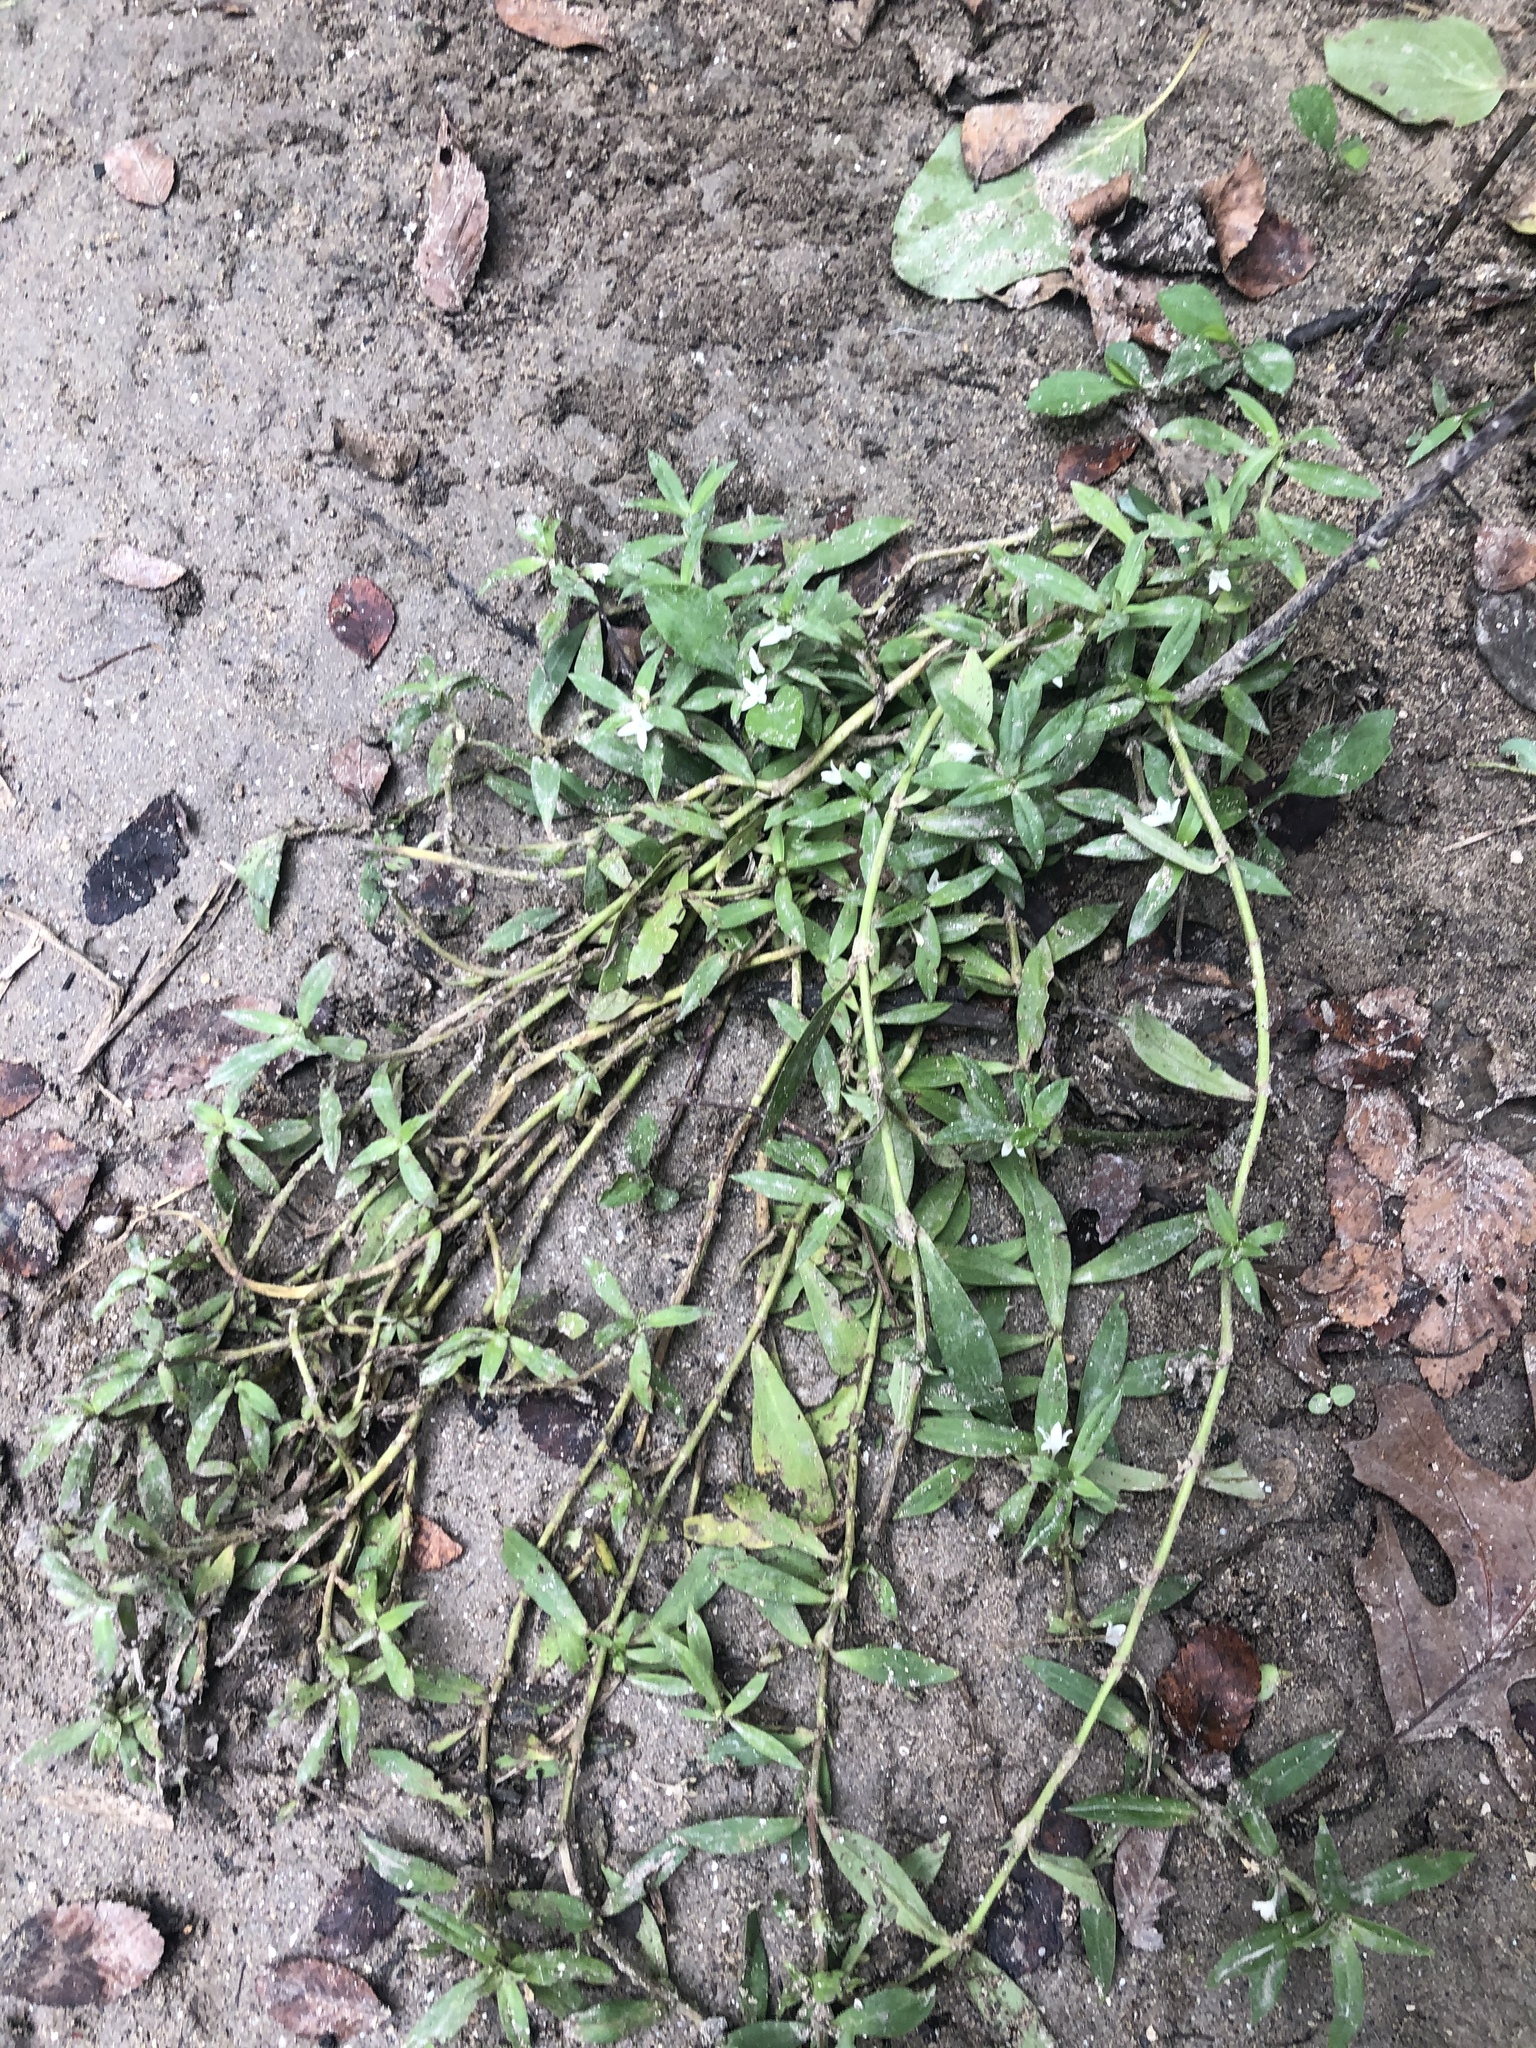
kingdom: Plantae
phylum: Tracheophyta
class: Magnoliopsida
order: Gentianales
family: Rubiaceae
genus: Diodia
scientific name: Diodia virginiana
